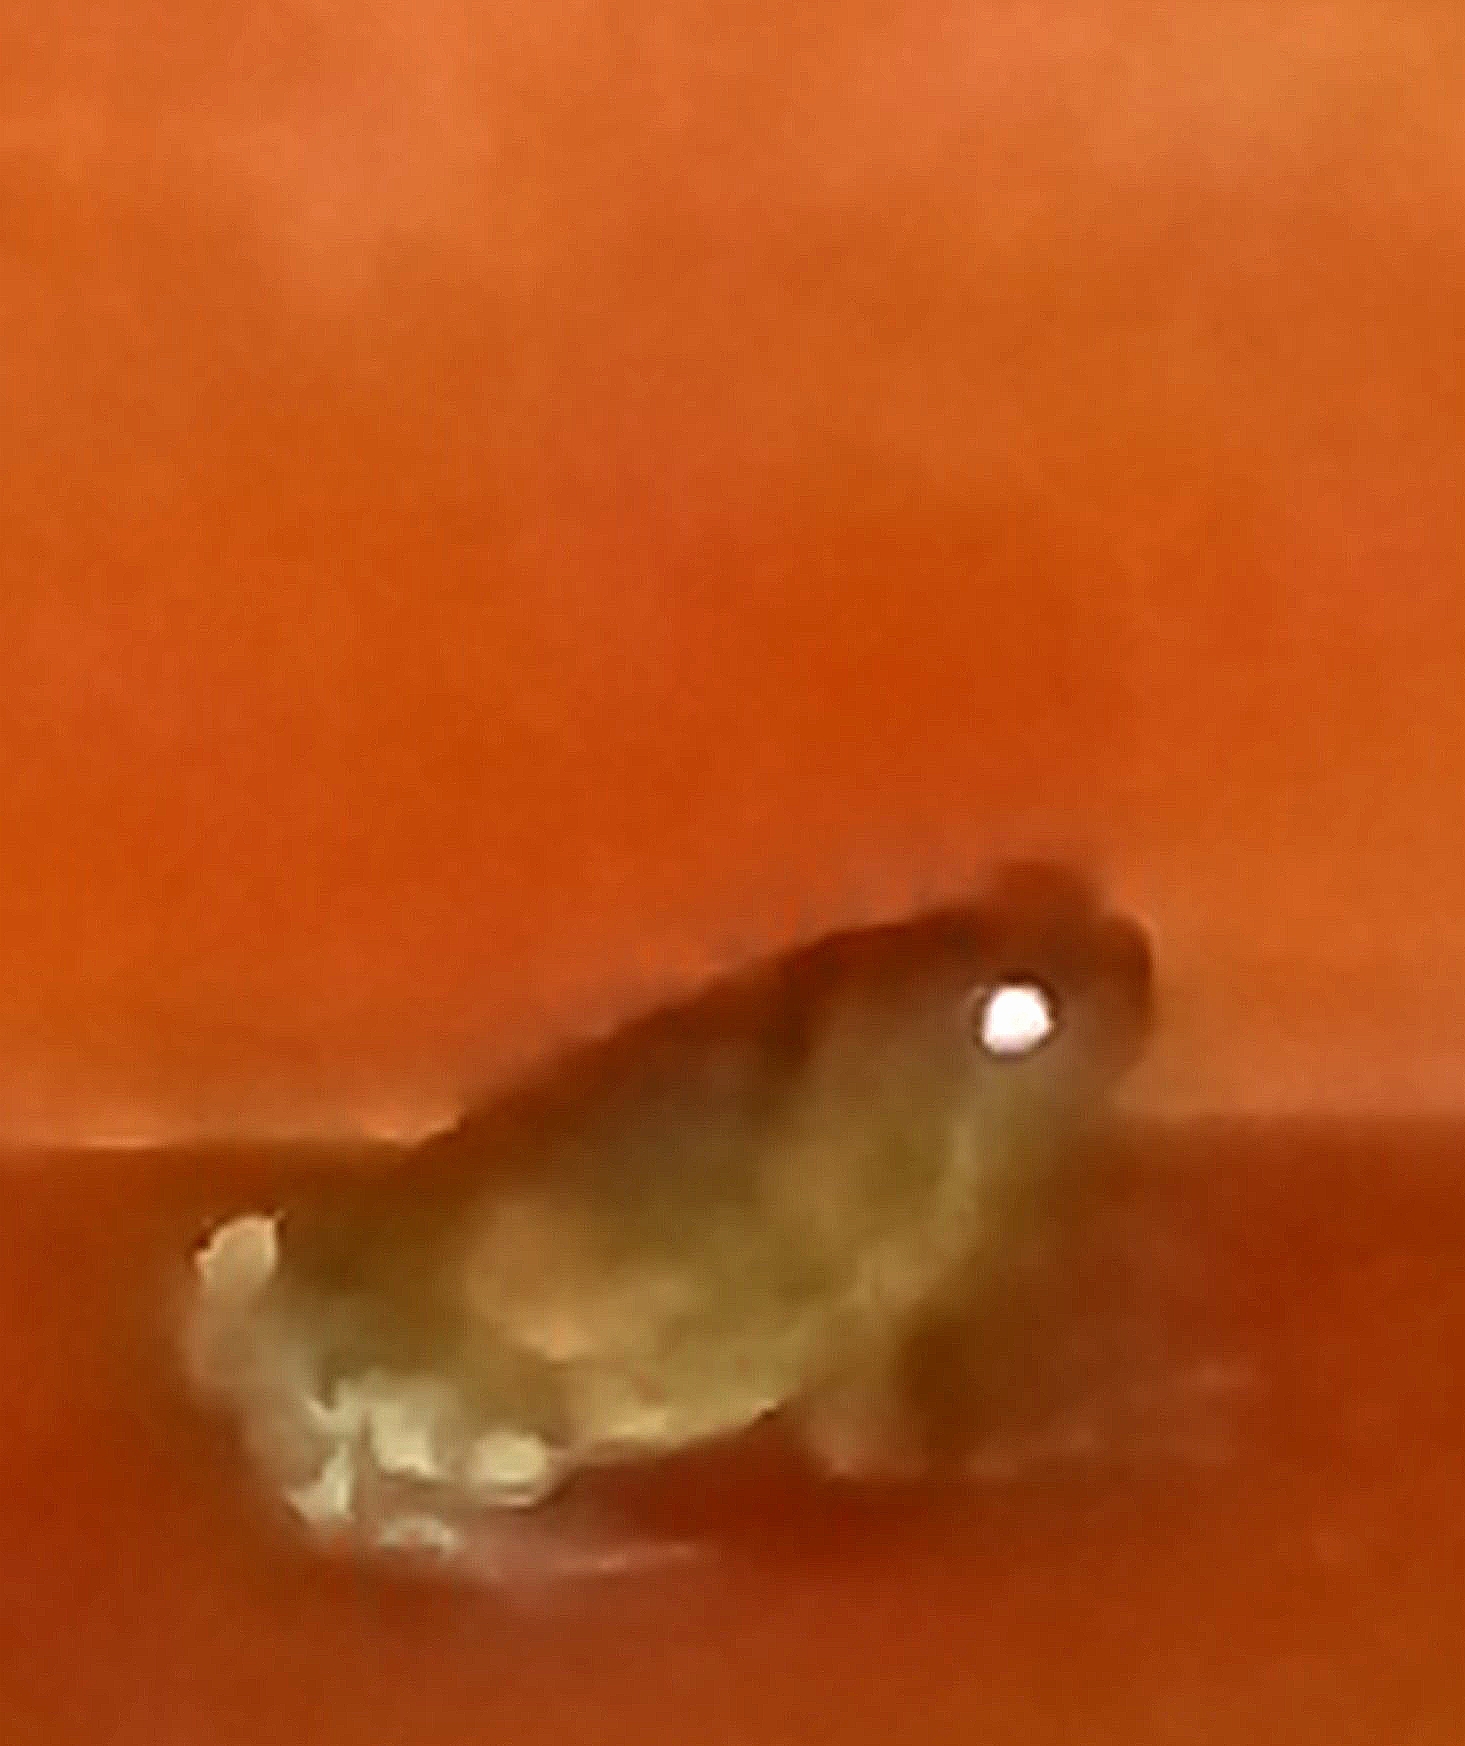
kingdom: Animalia
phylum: Chordata
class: Amphibia
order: Anura
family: Microhylidae
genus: Uperodon
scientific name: Uperodon taprobanicus
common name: Ceylon kaloula
